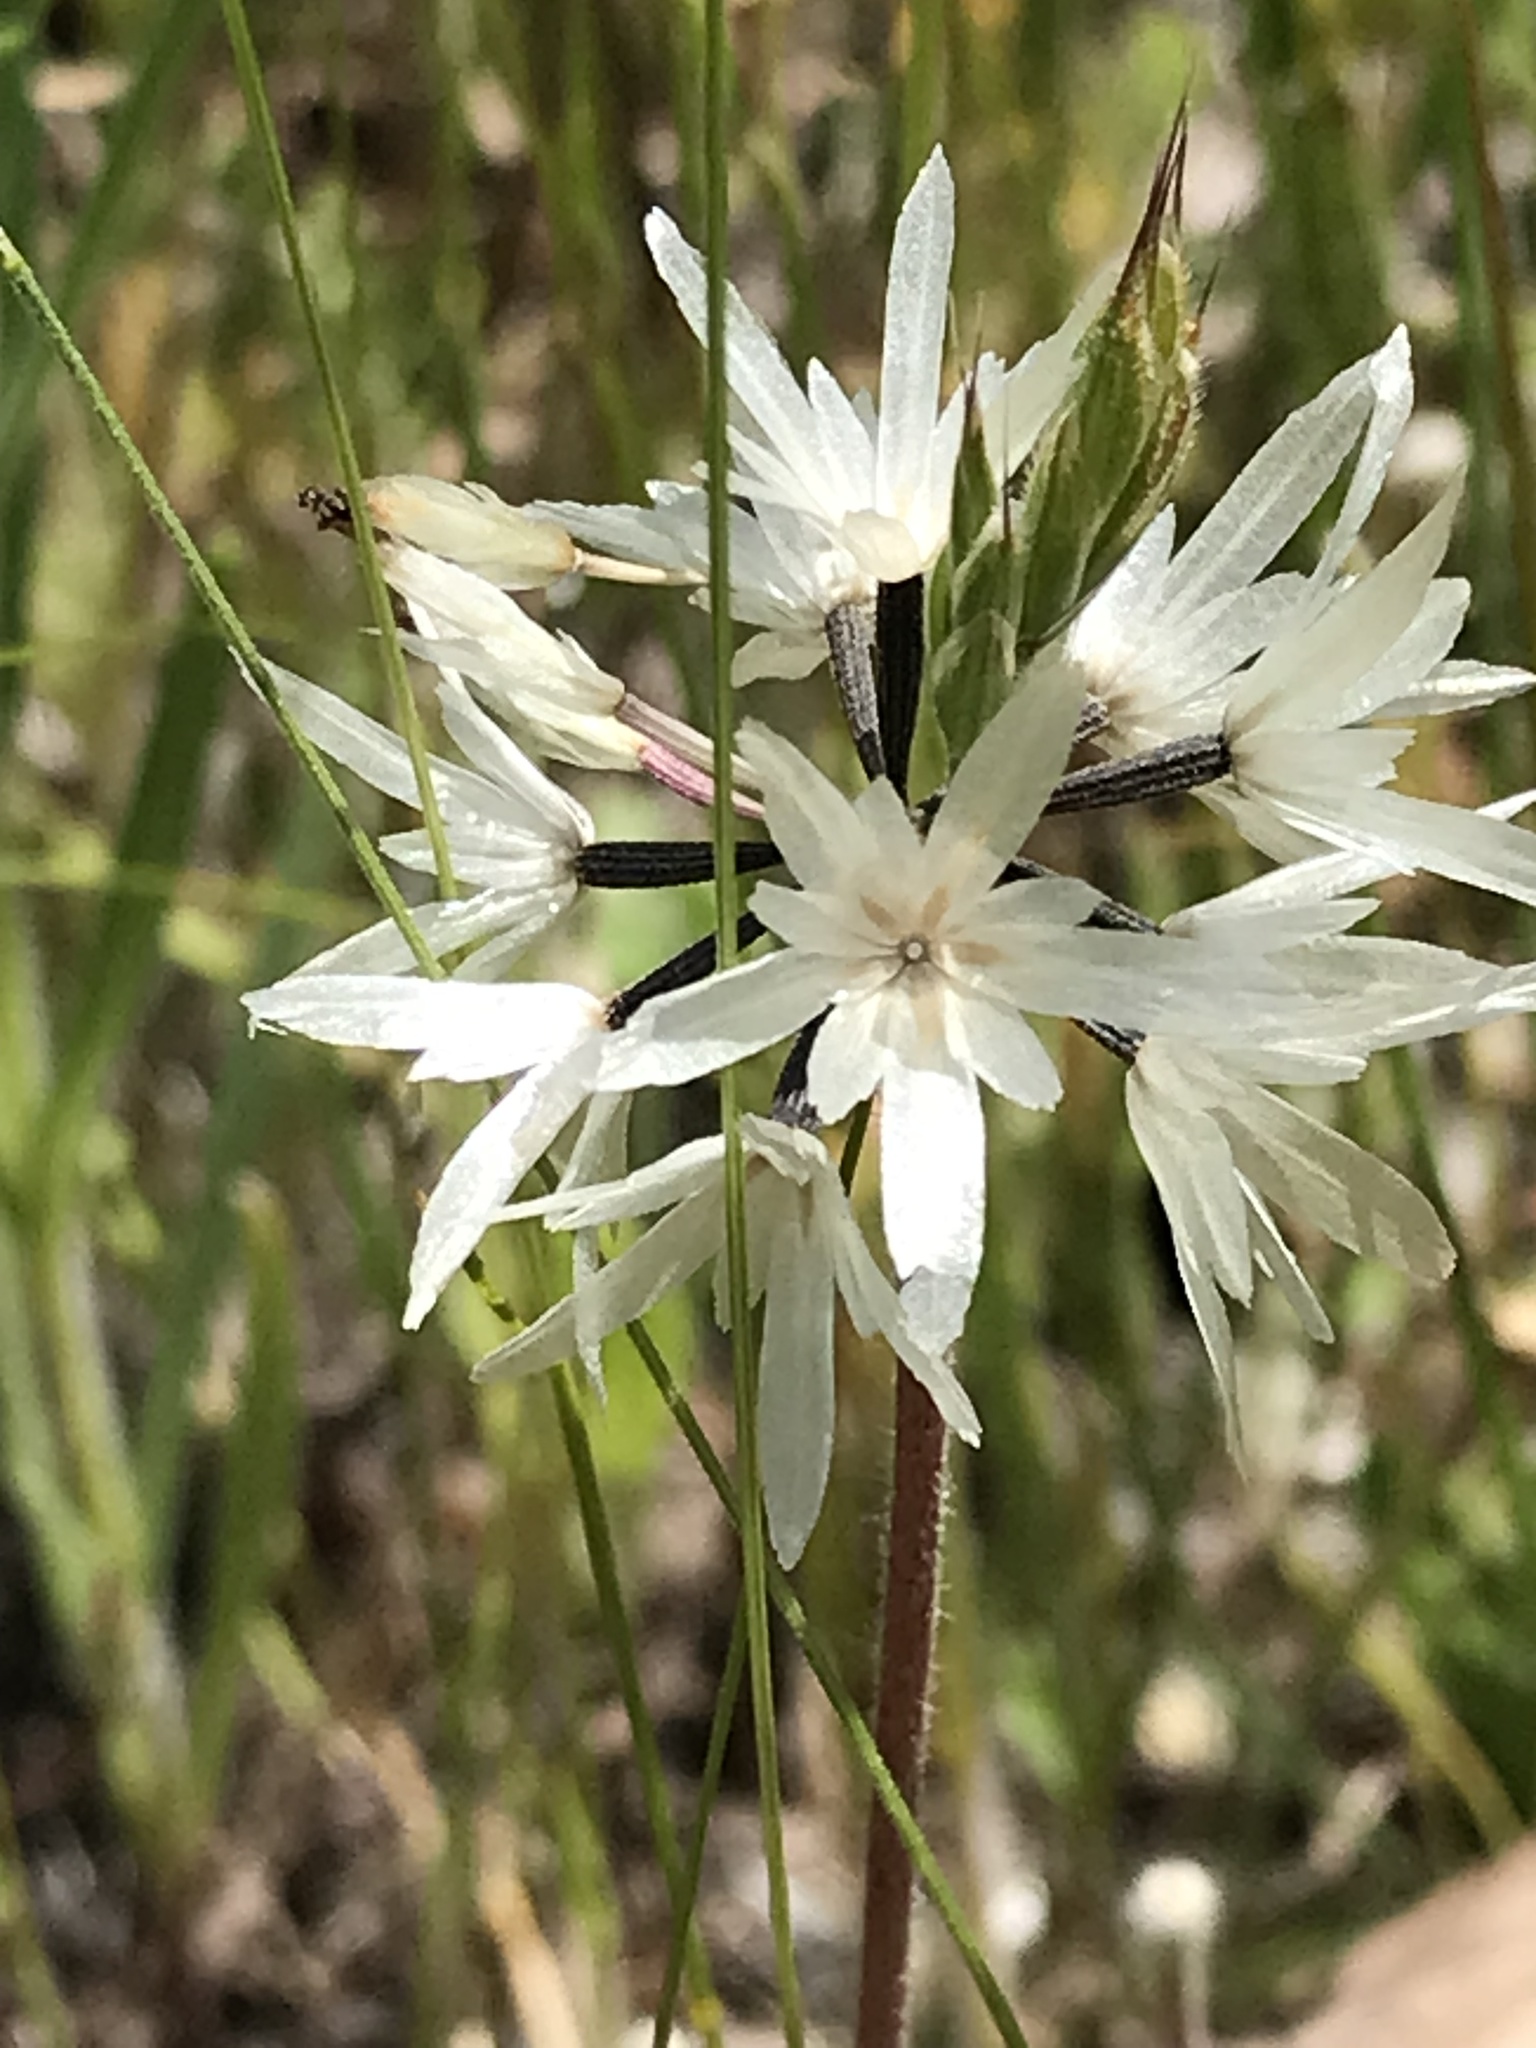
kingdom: Plantae
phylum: Tracheophyta
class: Magnoliopsida
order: Asterales
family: Asteraceae
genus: Achyrachaena
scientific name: Achyrachaena mollis
